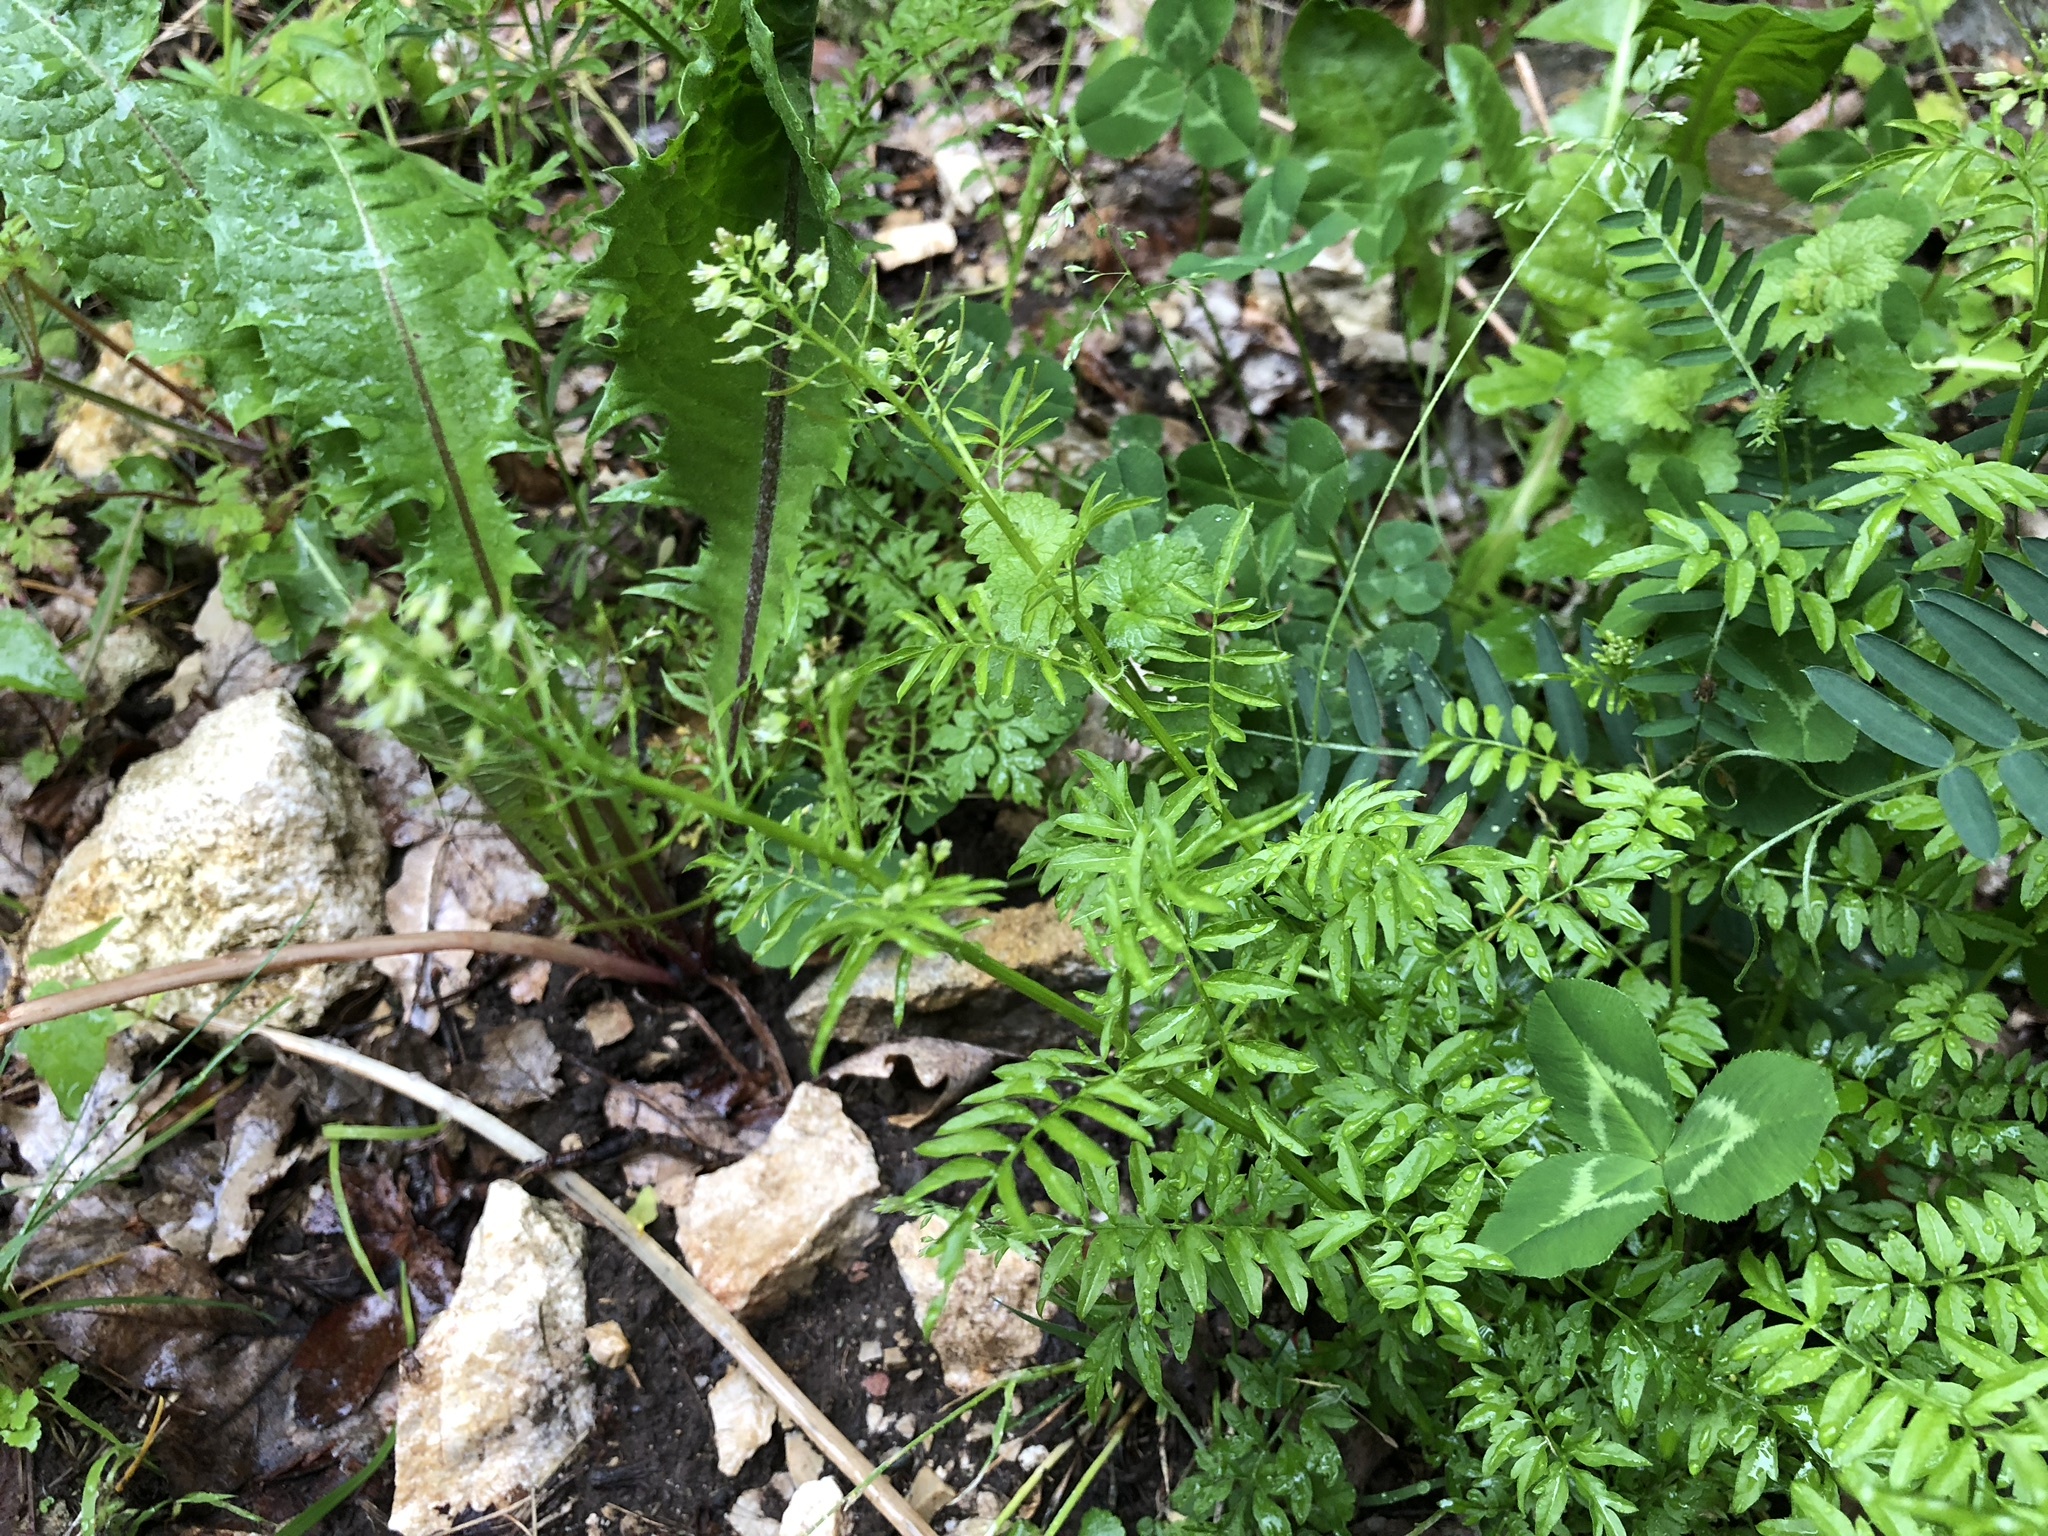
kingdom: Plantae
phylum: Tracheophyta
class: Magnoliopsida
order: Brassicales
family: Brassicaceae
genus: Cardamine
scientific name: Cardamine impatiens
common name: Narrow-leaved bitter-cress
